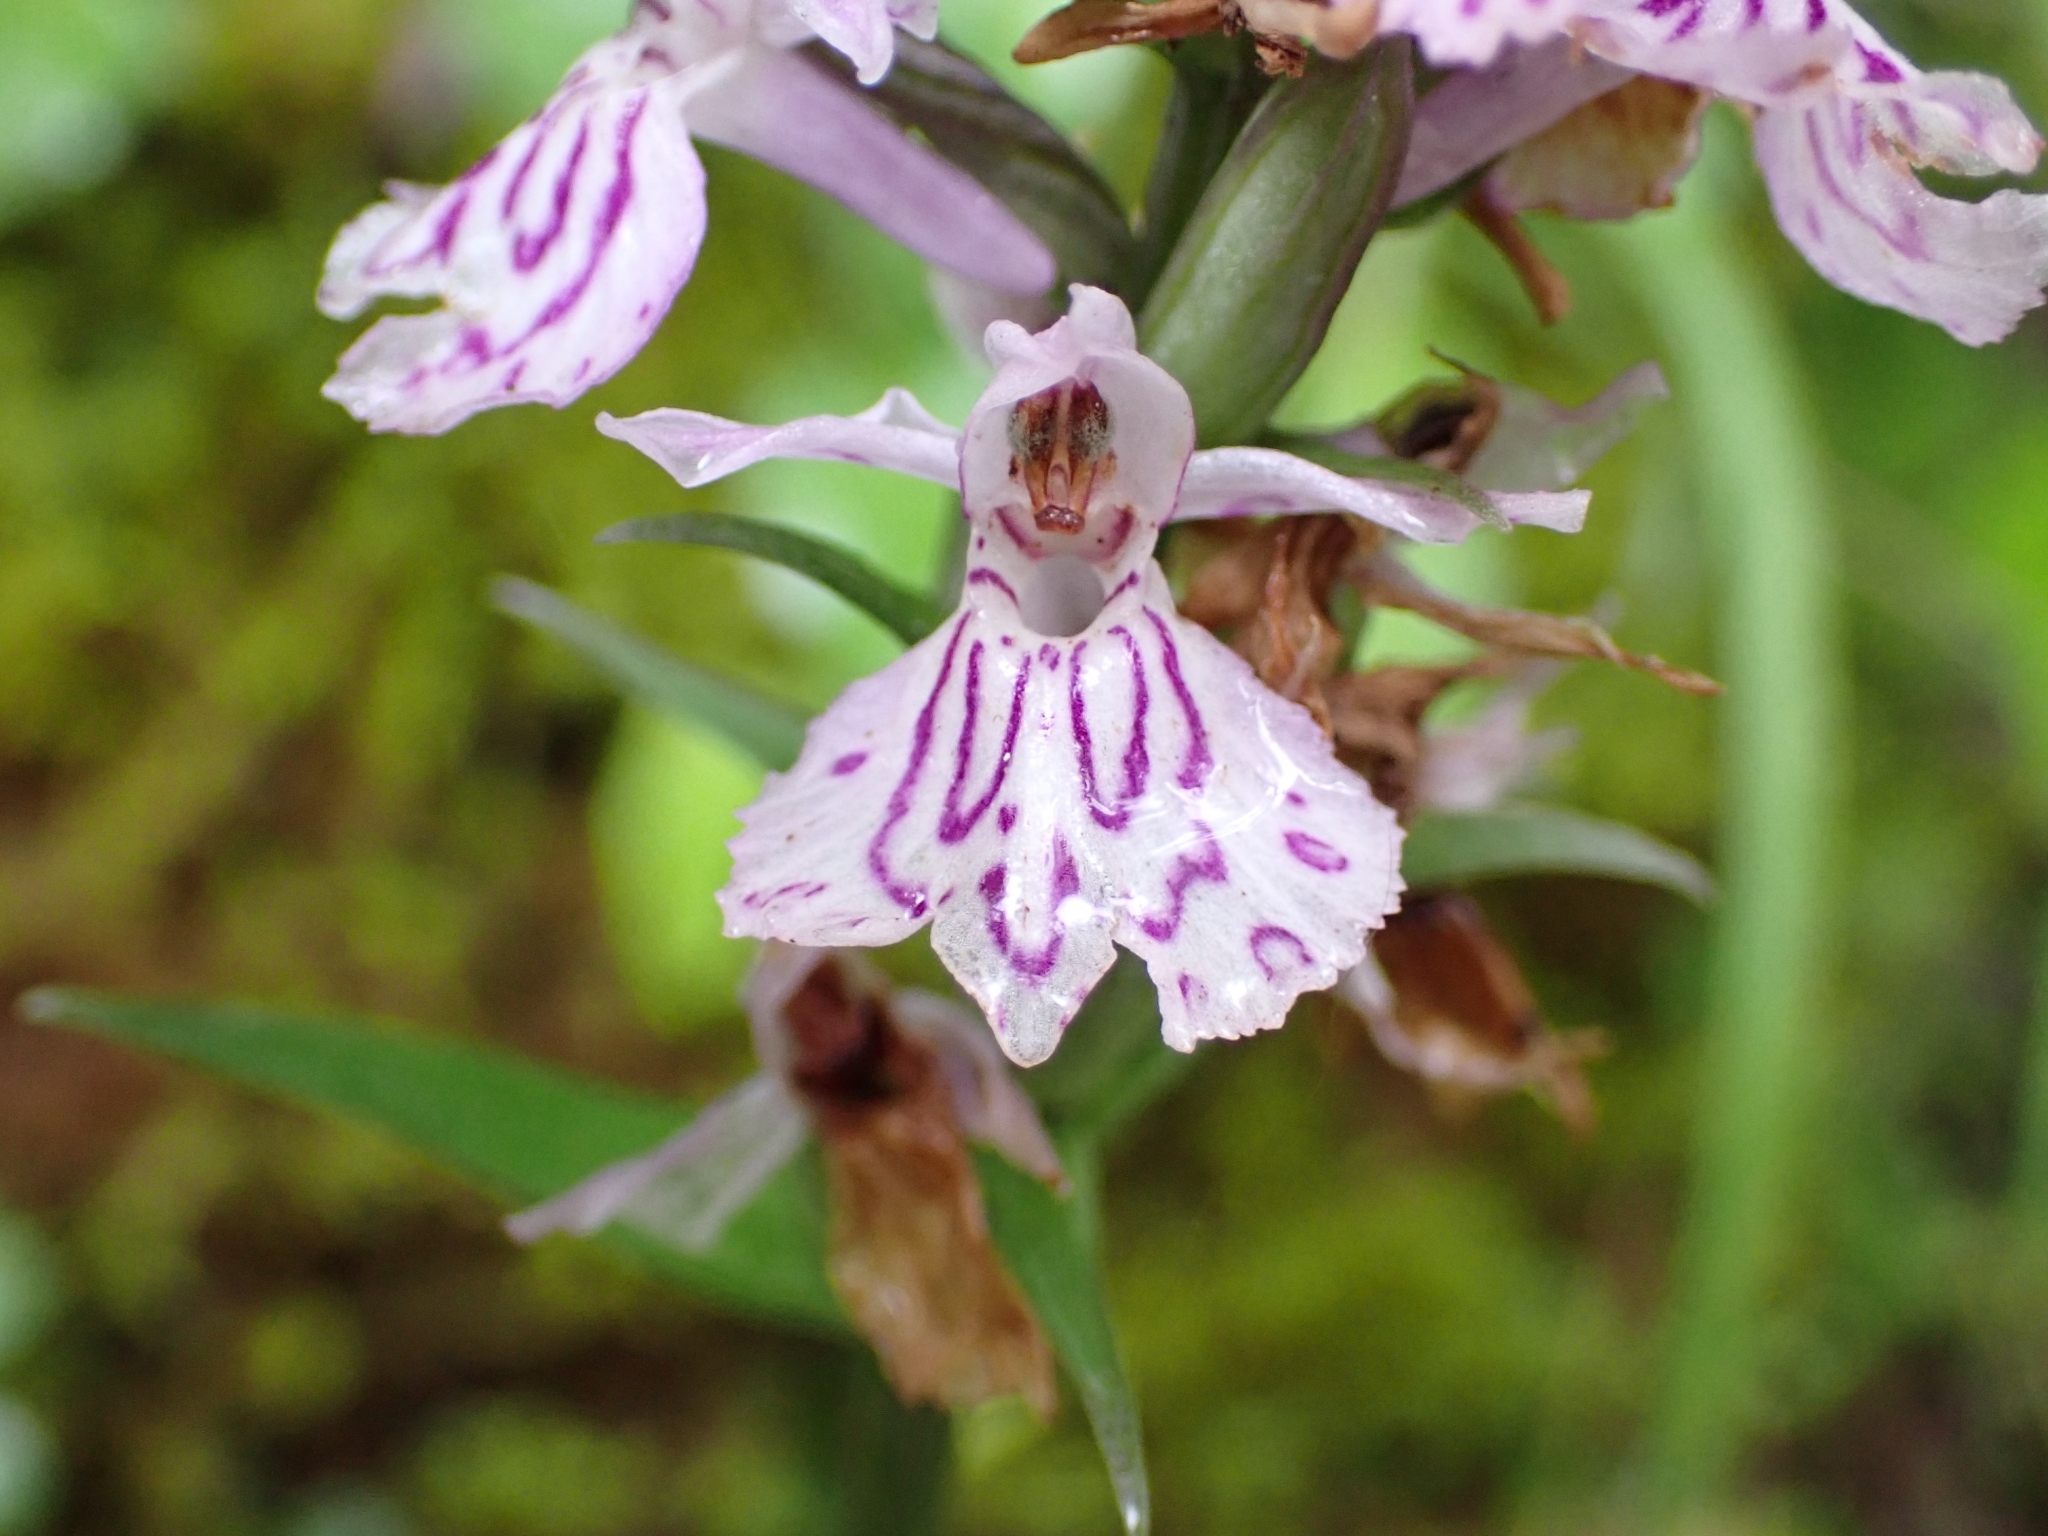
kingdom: Plantae
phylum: Tracheophyta
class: Liliopsida
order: Asparagales
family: Orchidaceae
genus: Dactylorhiza
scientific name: Dactylorhiza maculata
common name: Heath spotted-orchid
